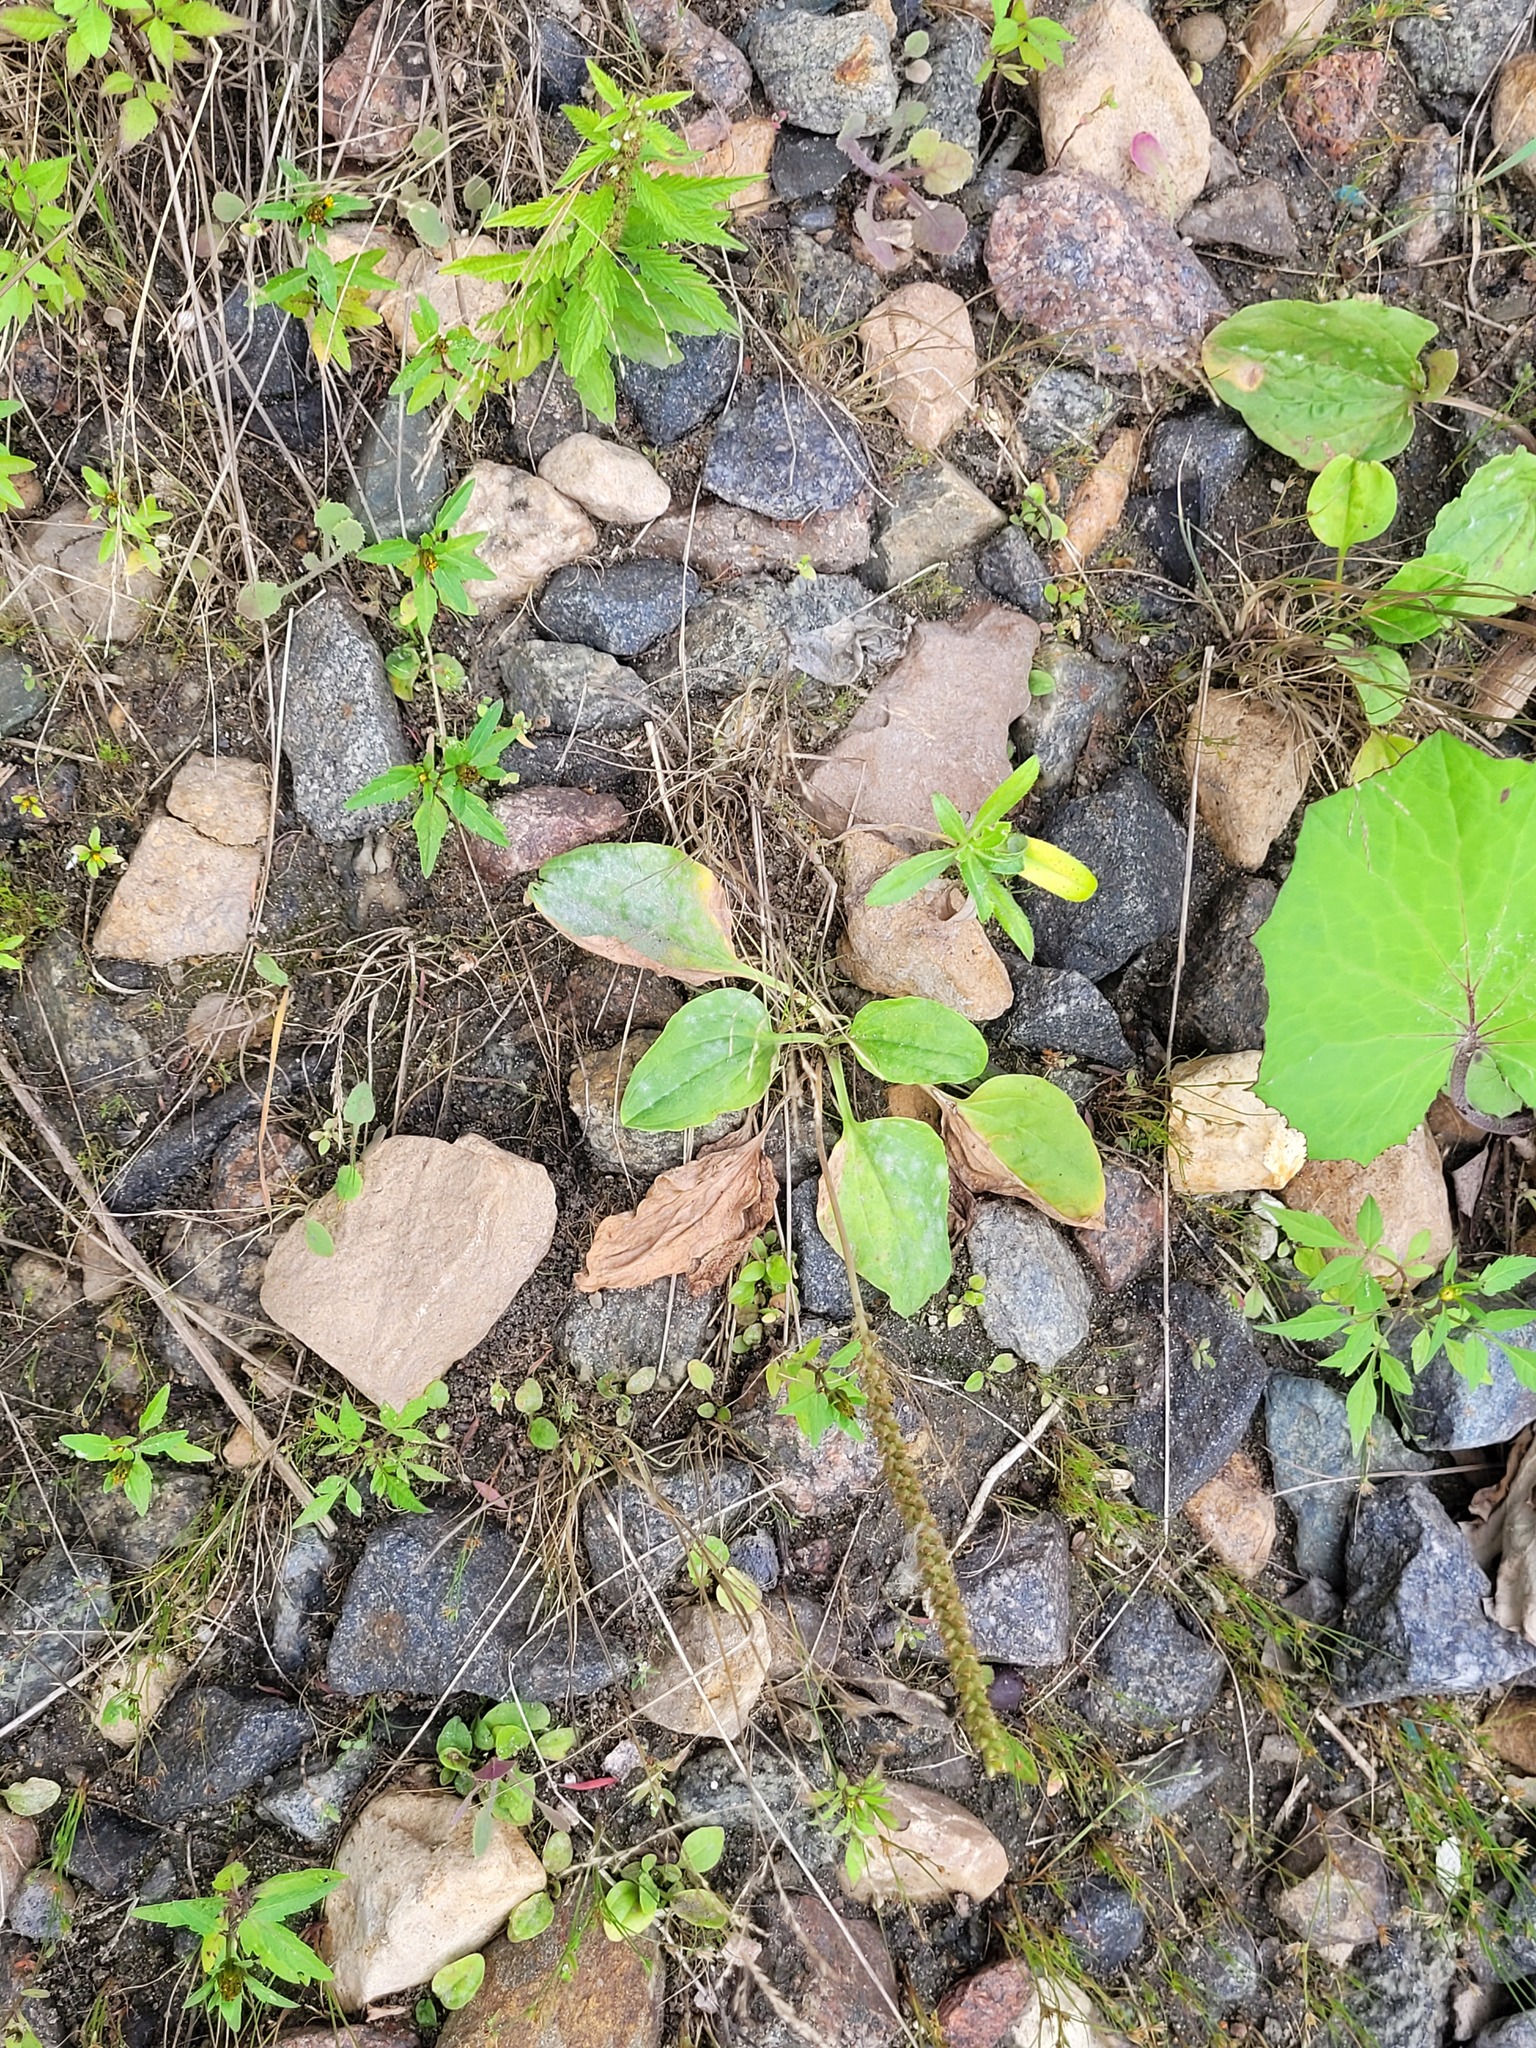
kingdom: Plantae
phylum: Tracheophyta
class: Magnoliopsida
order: Lamiales
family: Plantaginaceae
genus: Plantago
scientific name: Plantago major
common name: Common plantain
